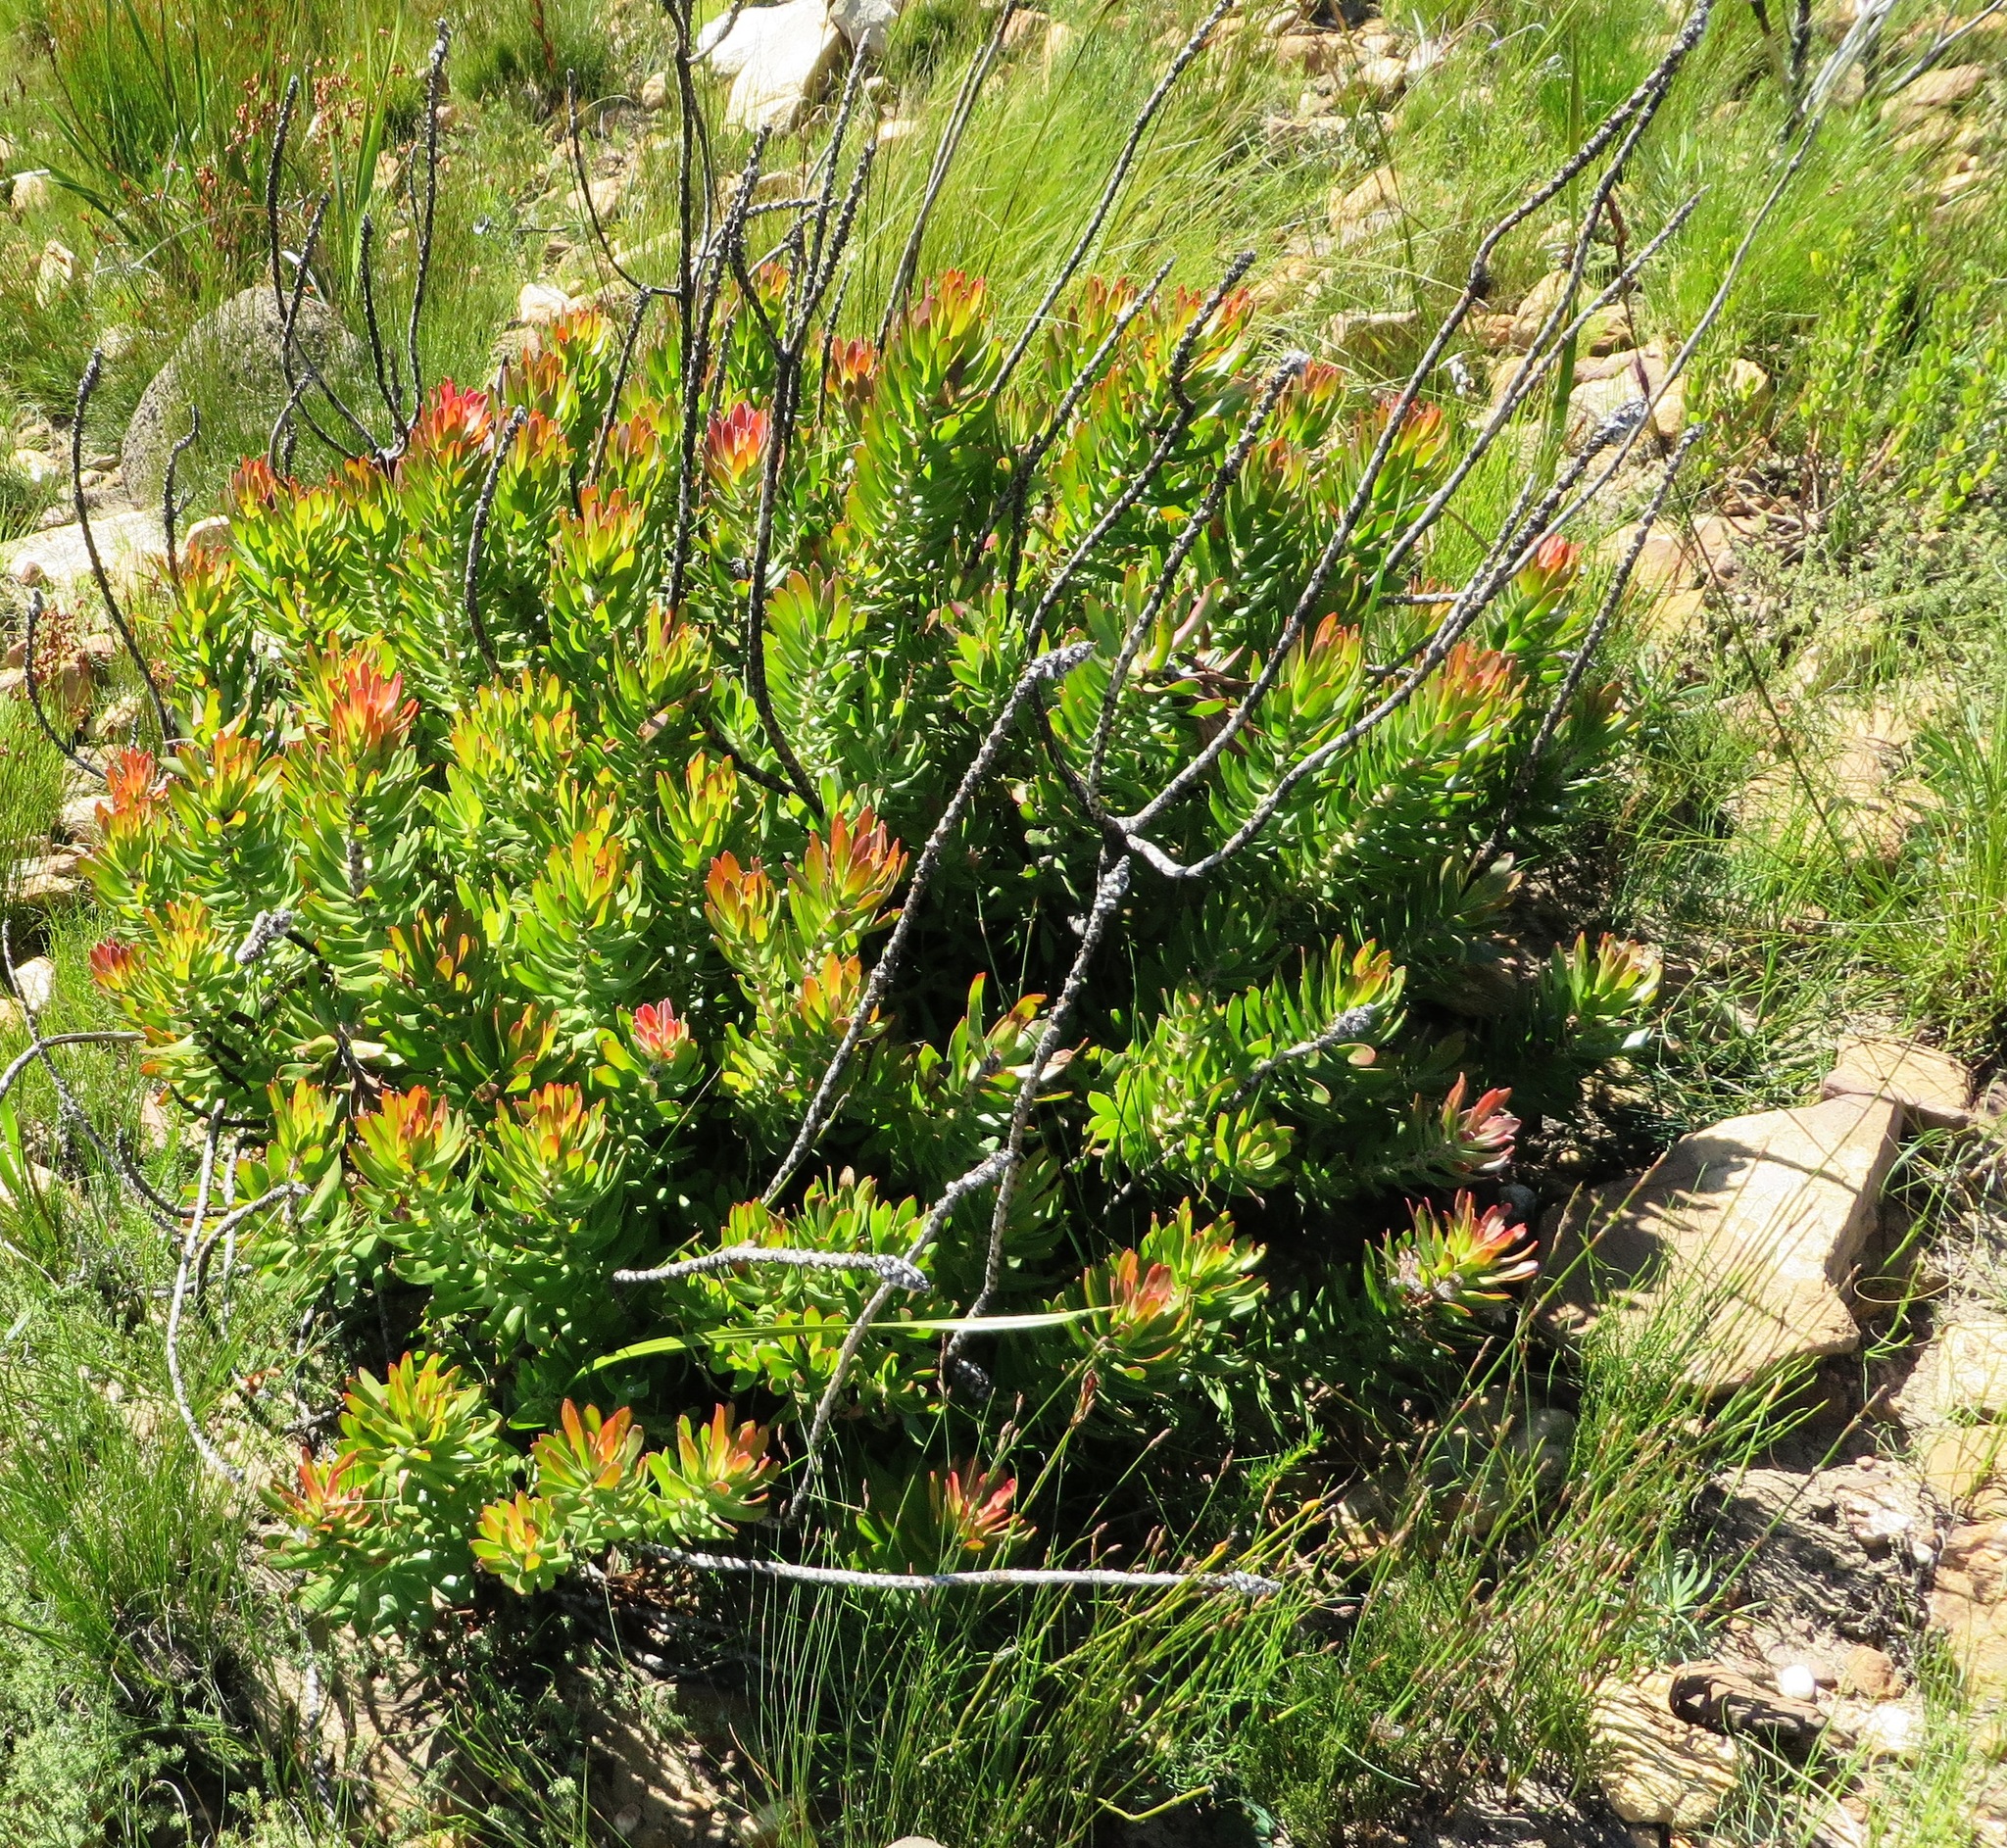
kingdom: Plantae
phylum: Tracheophyta
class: Magnoliopsida
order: Proteales
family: Proteaceae
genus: Mimetes
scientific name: Mimetes cucullatus
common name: Common pagoda
